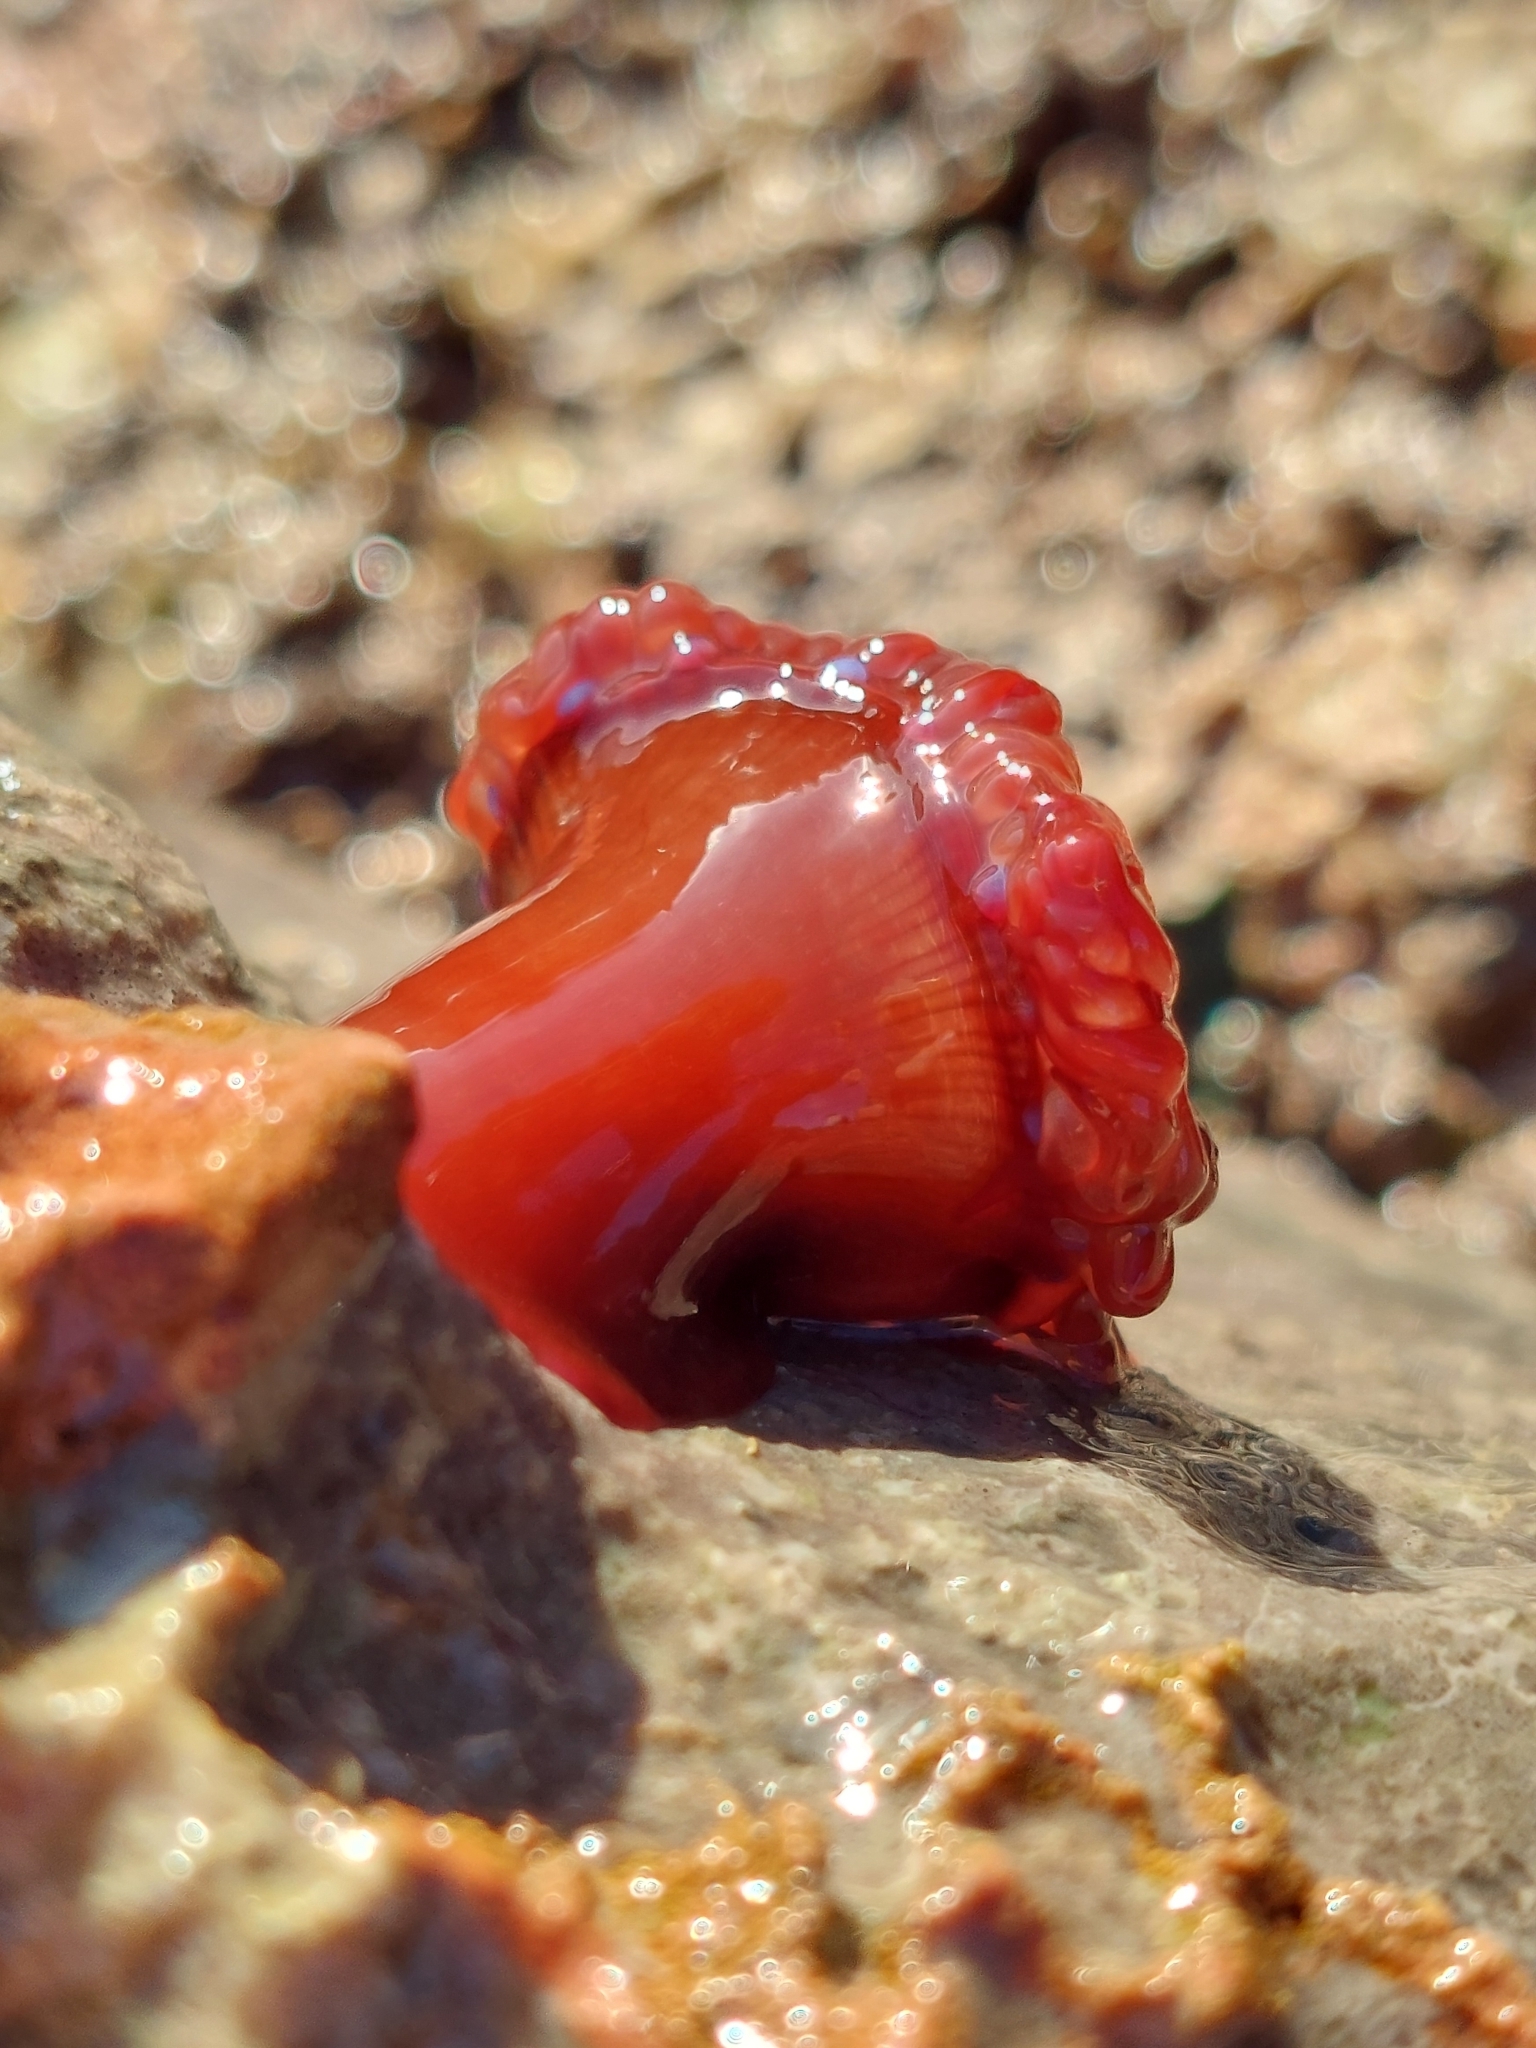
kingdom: Animalia
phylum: Cnidaria
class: Anthozoa
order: Actiniaria
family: Actiniidae
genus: Actinia
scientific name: Actinia equina
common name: Beadlet anemone
